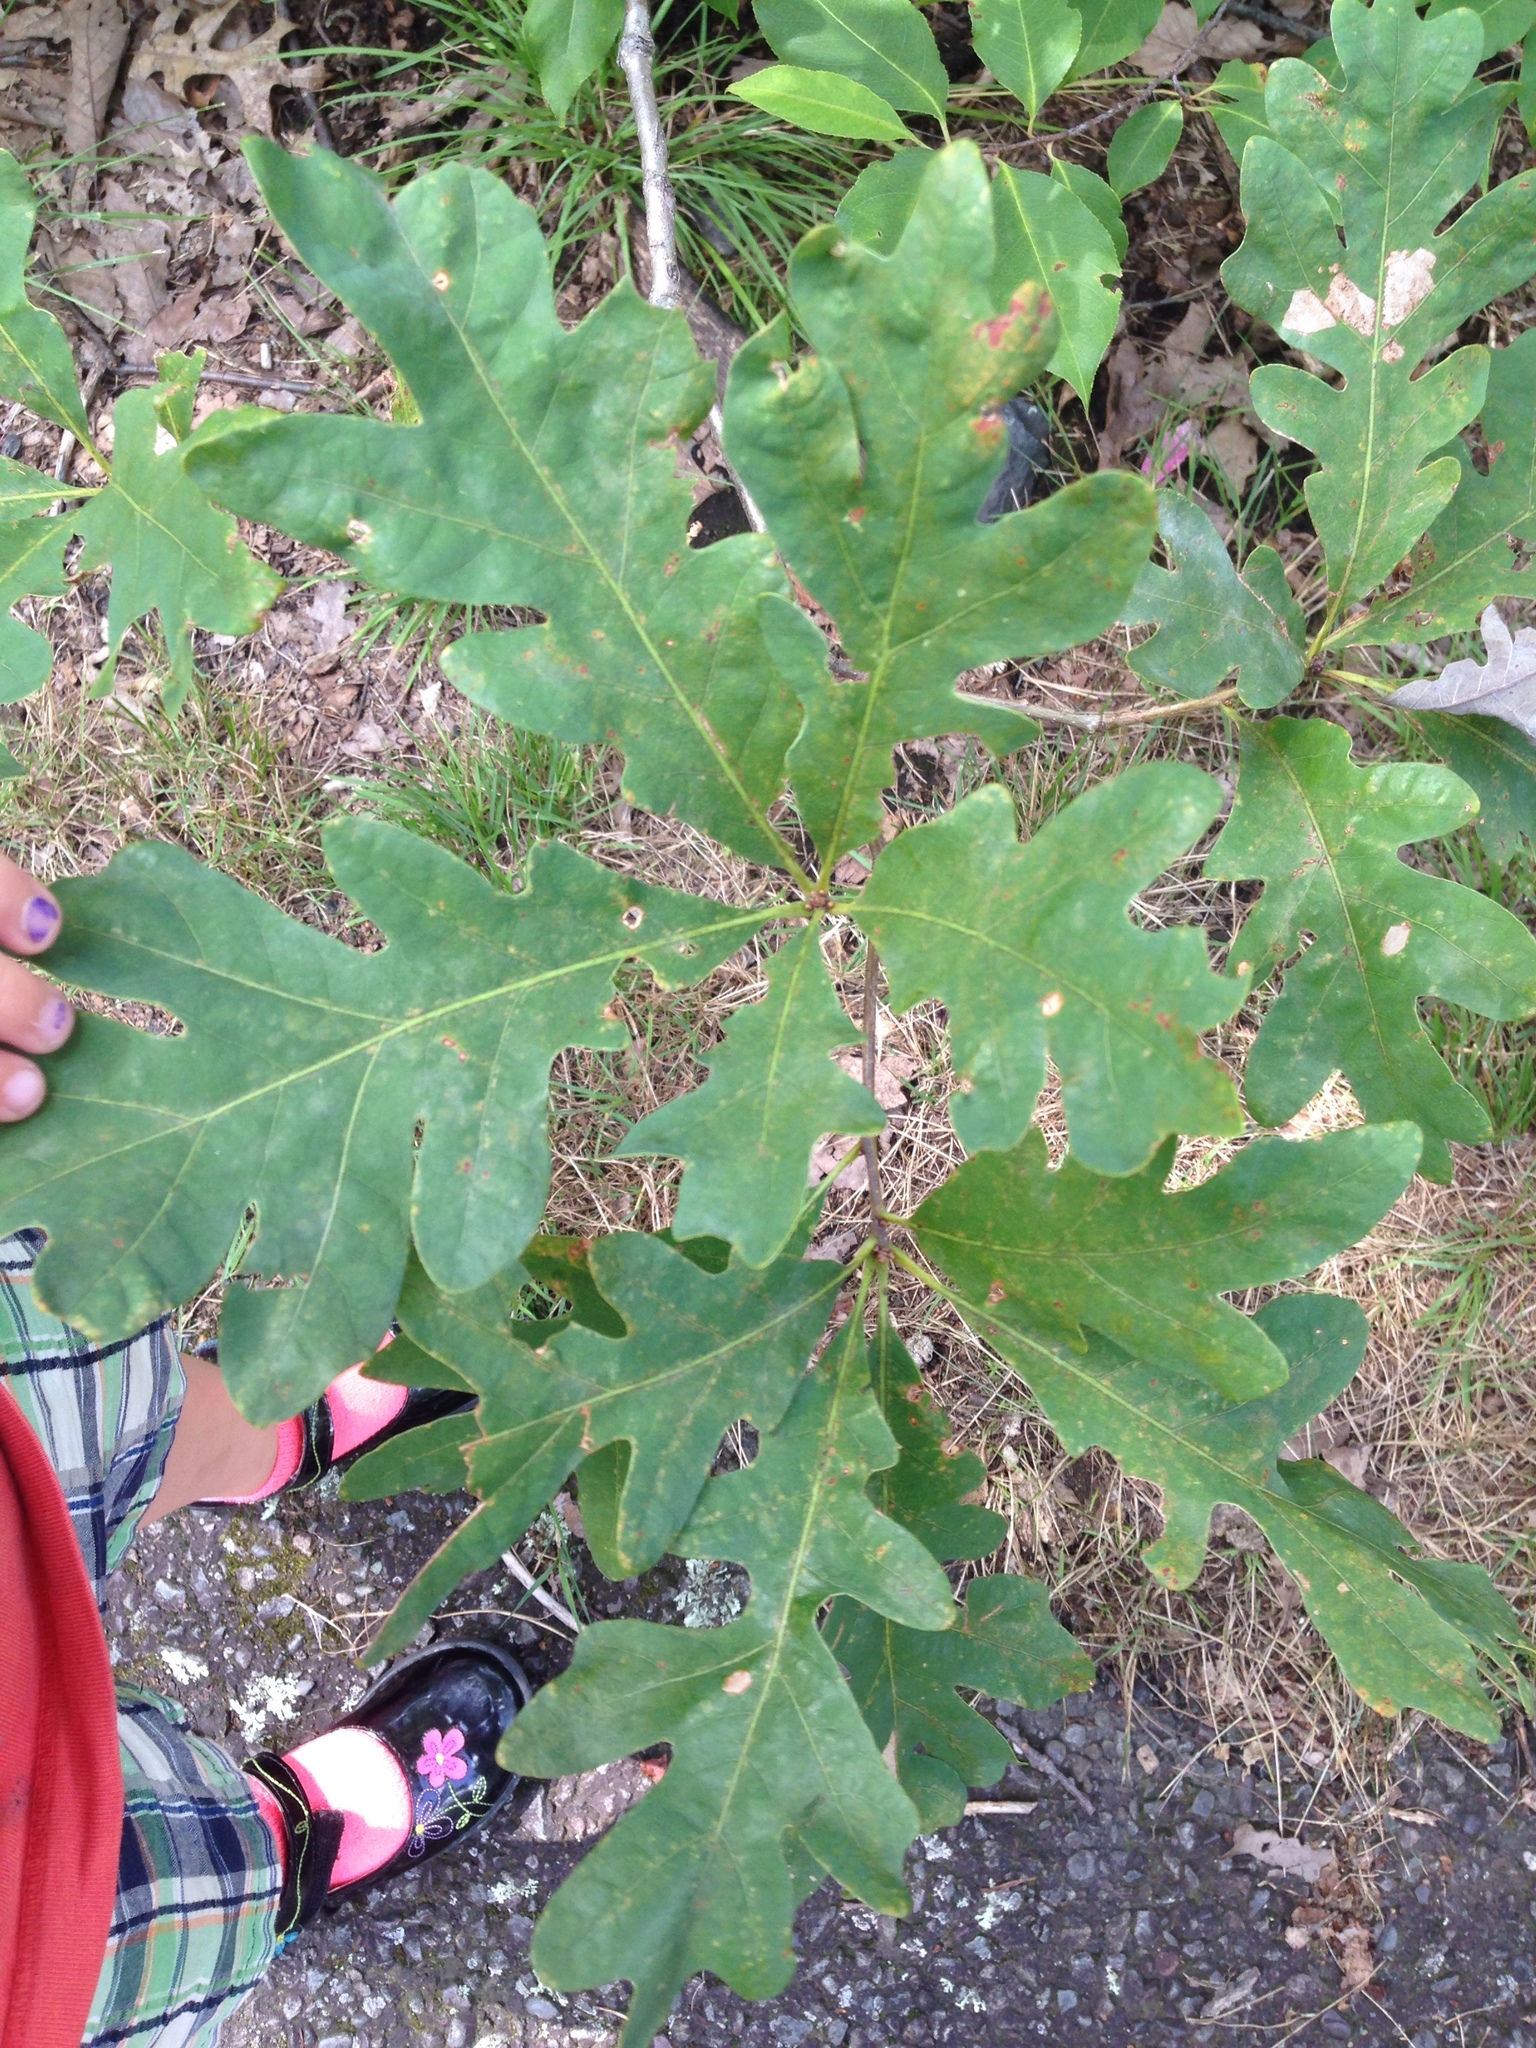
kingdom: Plantae
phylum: Tracheophyta
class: Magnoliopsida
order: Fagales
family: Fagaceae
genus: Quercus
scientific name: Quercus alba
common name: White oak
